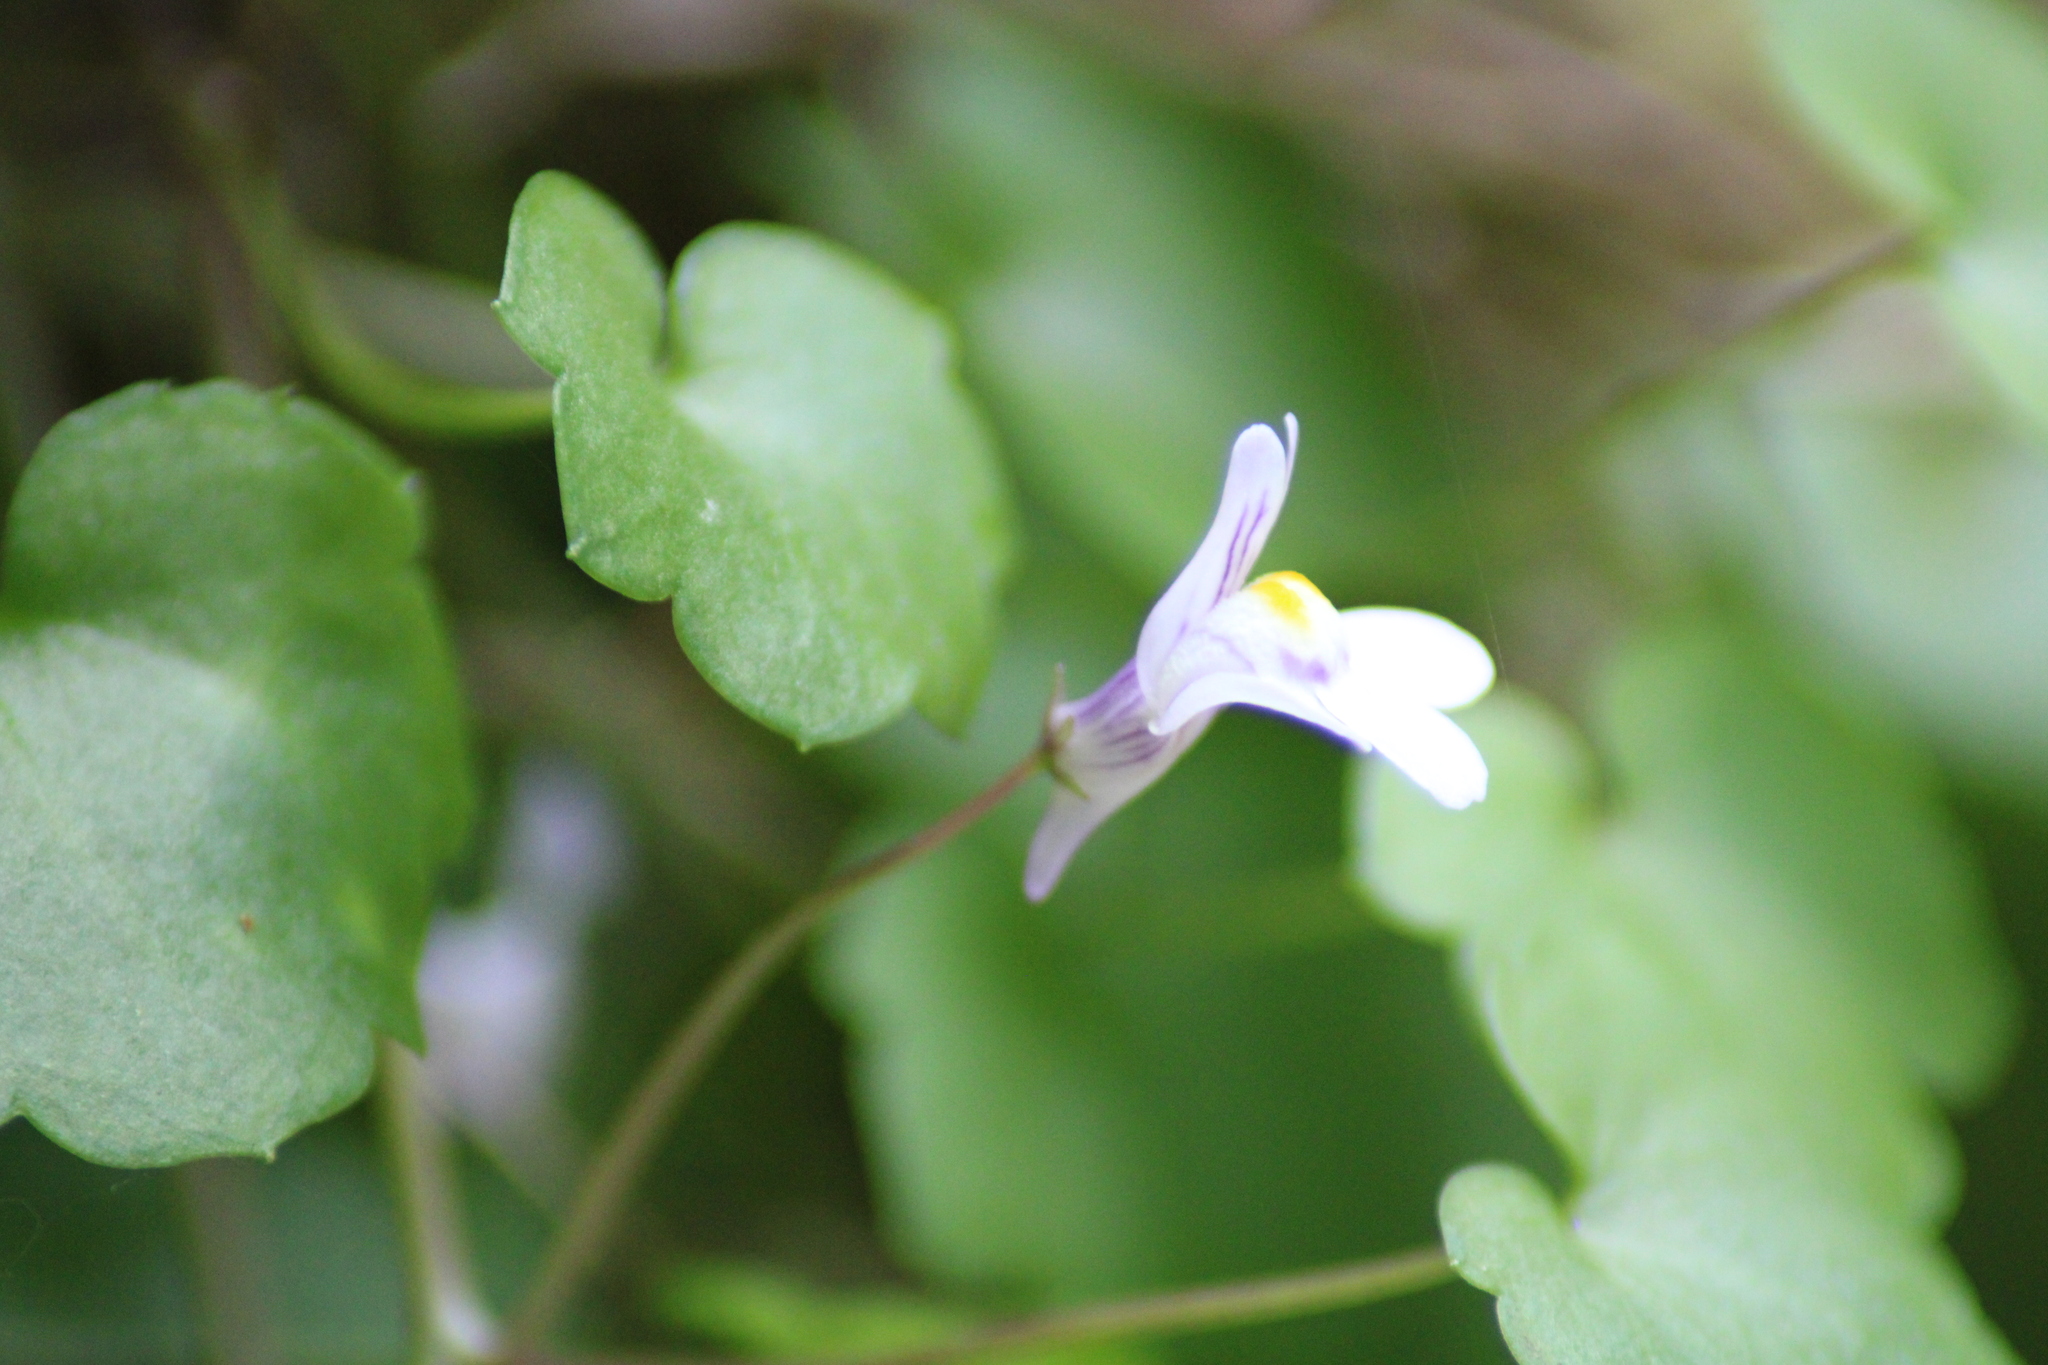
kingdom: Plantae
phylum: Tracheophyta
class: Magnoliopsida
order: Lamiales
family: Plantaginaceae
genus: Cymbalaria
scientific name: Cymbalaria muralis
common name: Ivy-leaved toadflax
